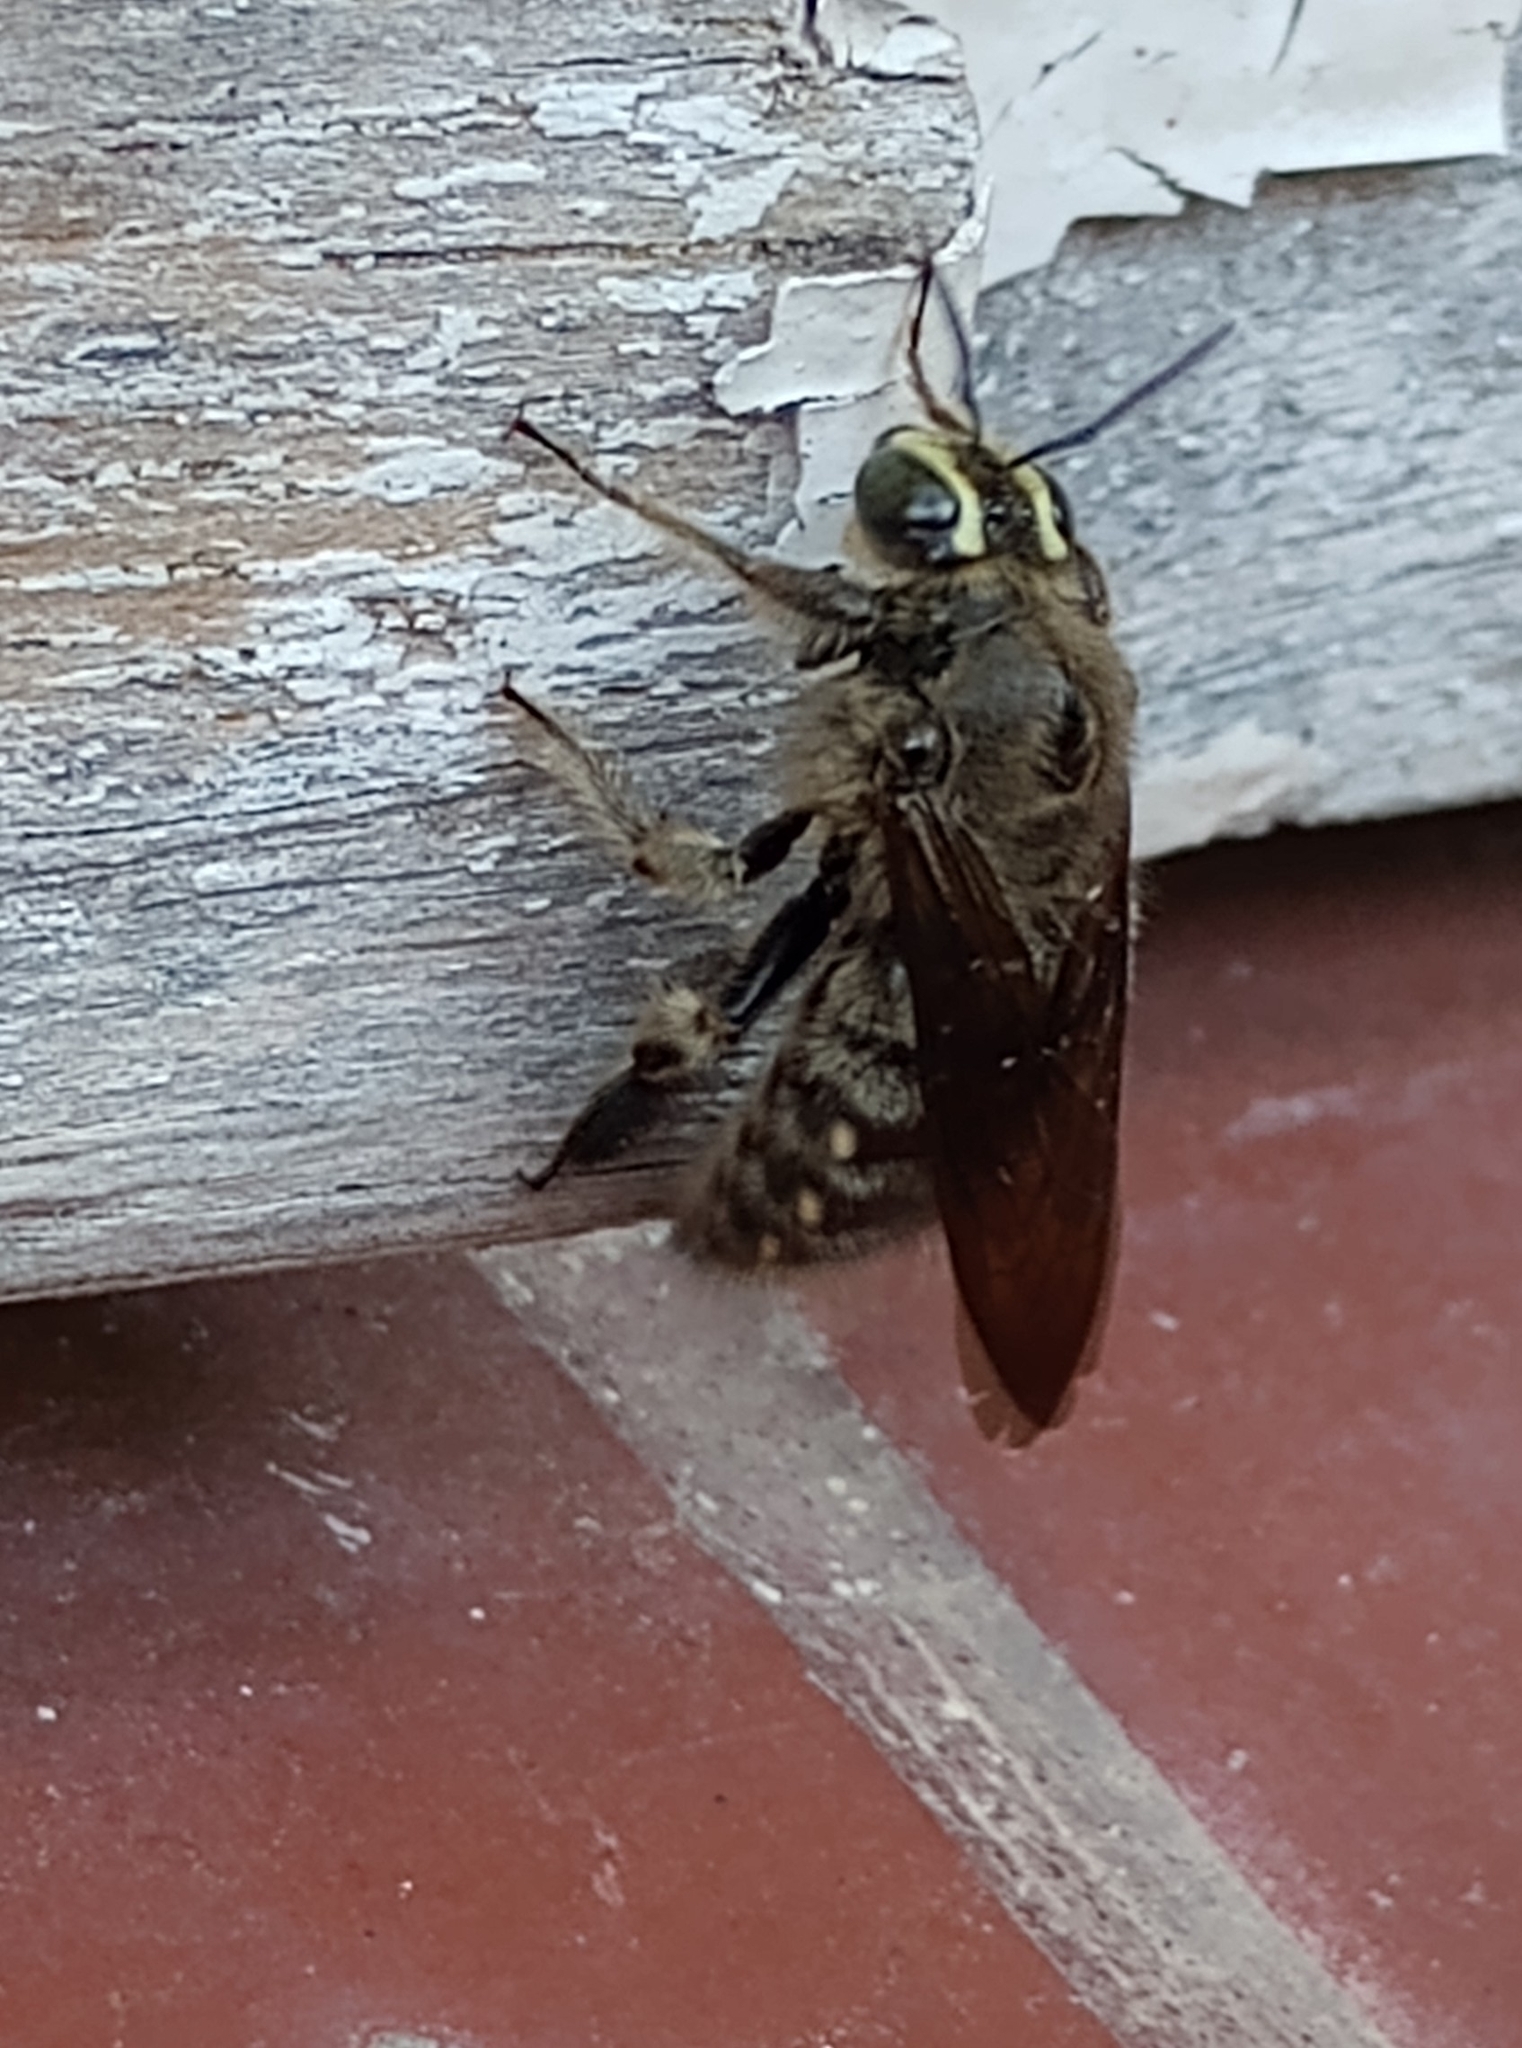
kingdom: Animalia
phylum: Arthropoda
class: Insecta
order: Hymenoptera
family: Apidae
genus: Xylocopa
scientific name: Xylocopa artifex
